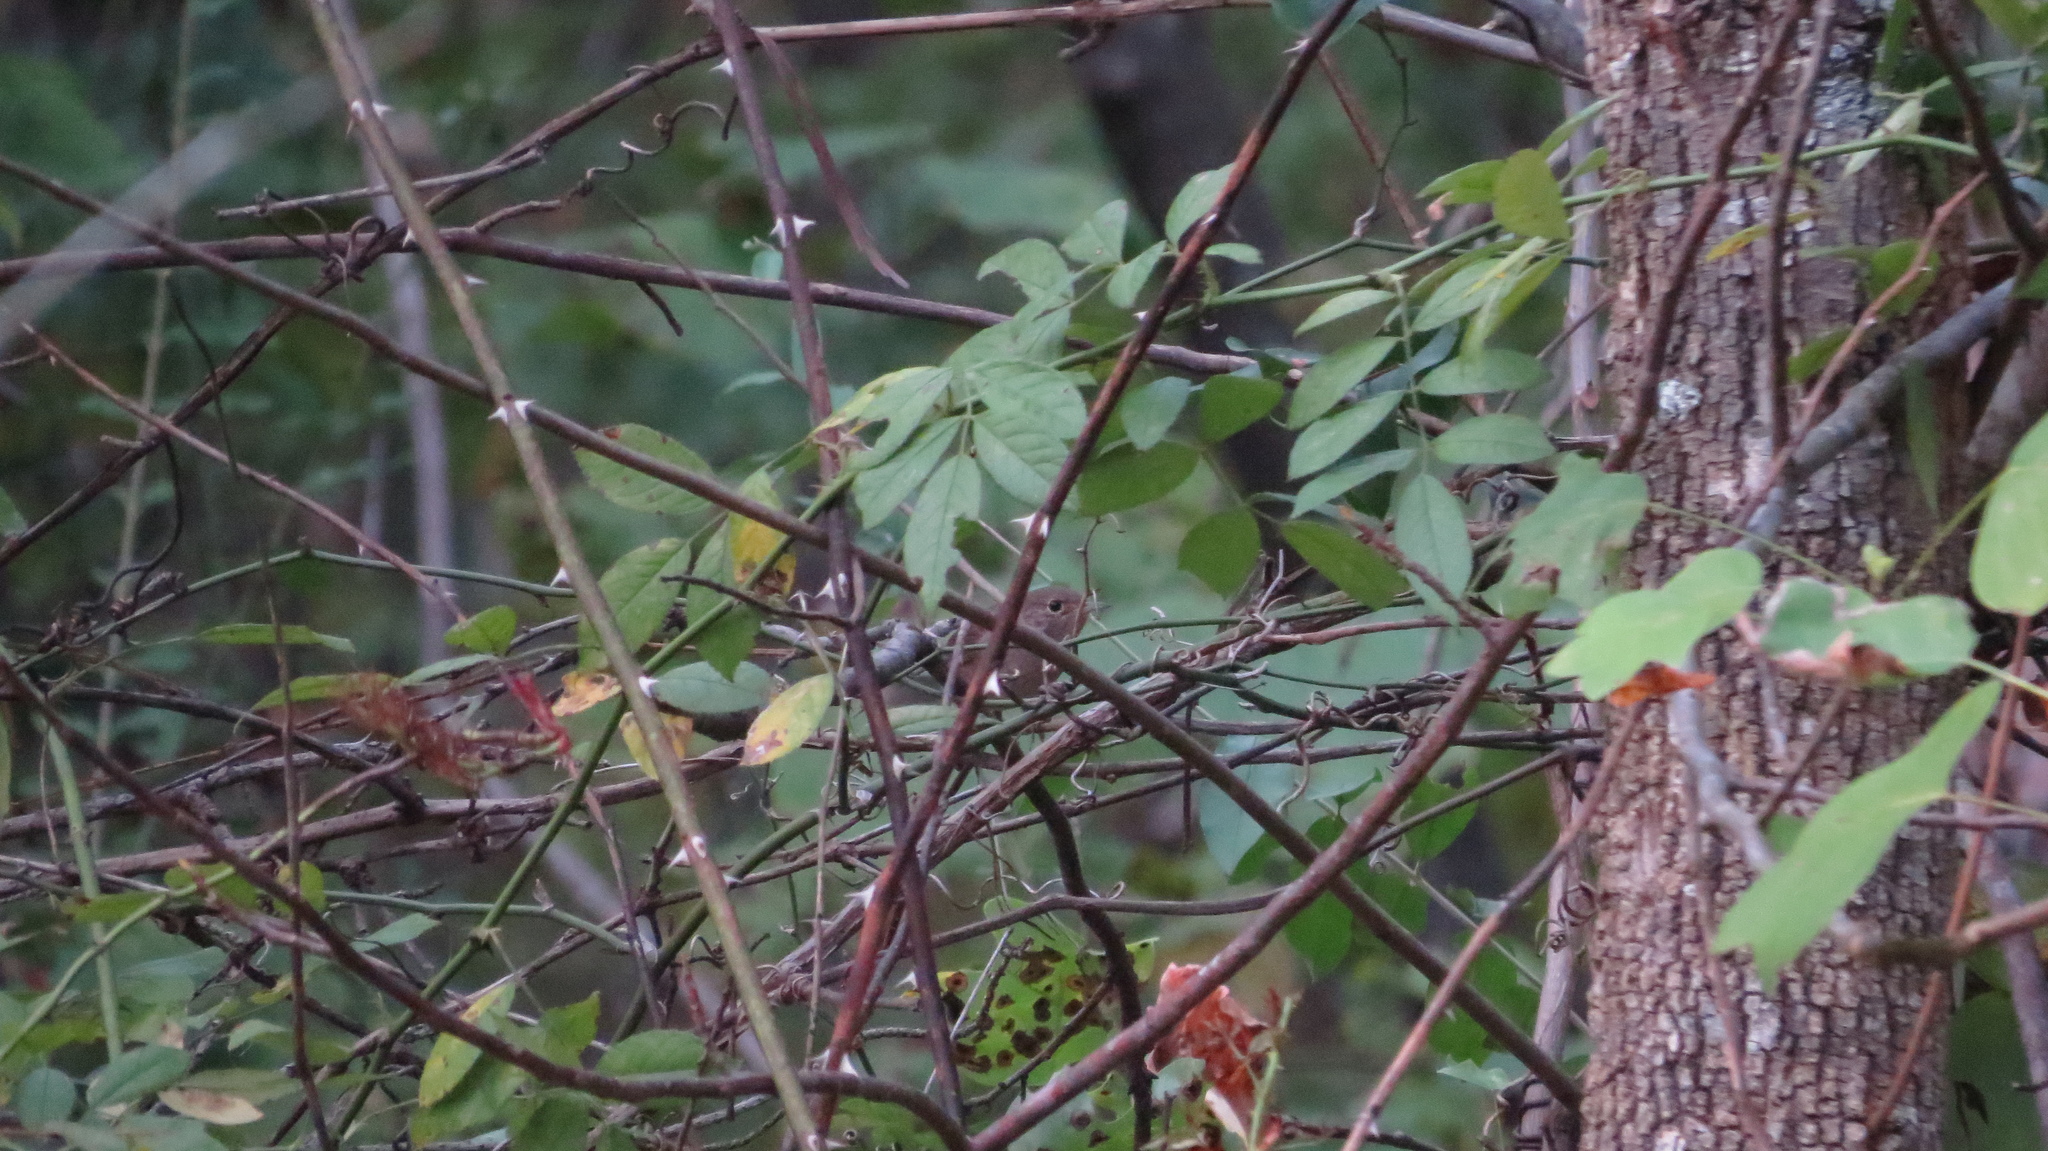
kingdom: Animalia
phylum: Chordata
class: Aves
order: Passeriformes
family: Troglodytidae
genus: Troglodytes
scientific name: Troglodytes aedon
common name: House wren
